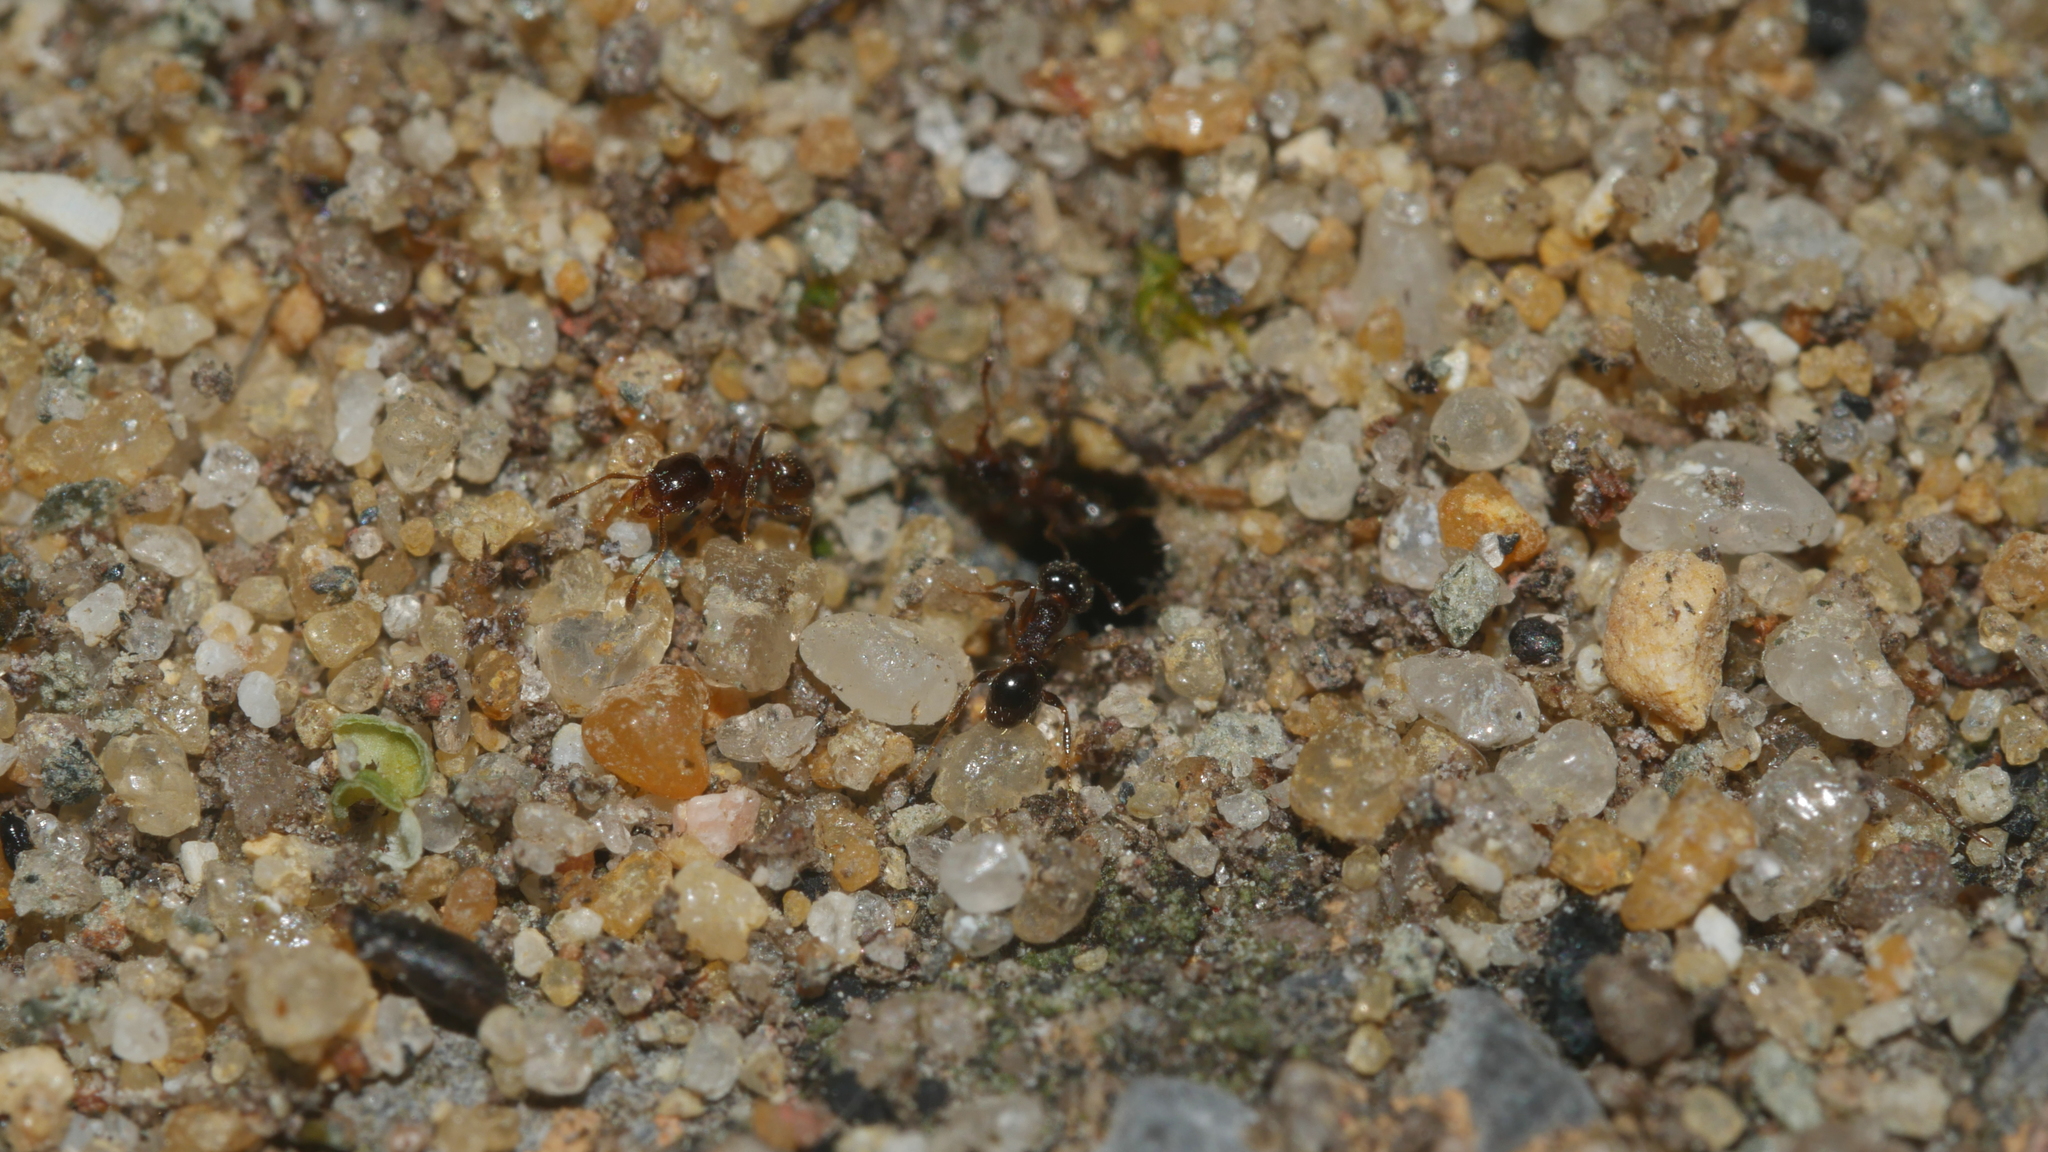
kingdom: Animalia
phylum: Arthropoda
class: Insecta
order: Hymenoptera
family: Formicidae
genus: Pheidole
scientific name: Pheidole bicarinata
